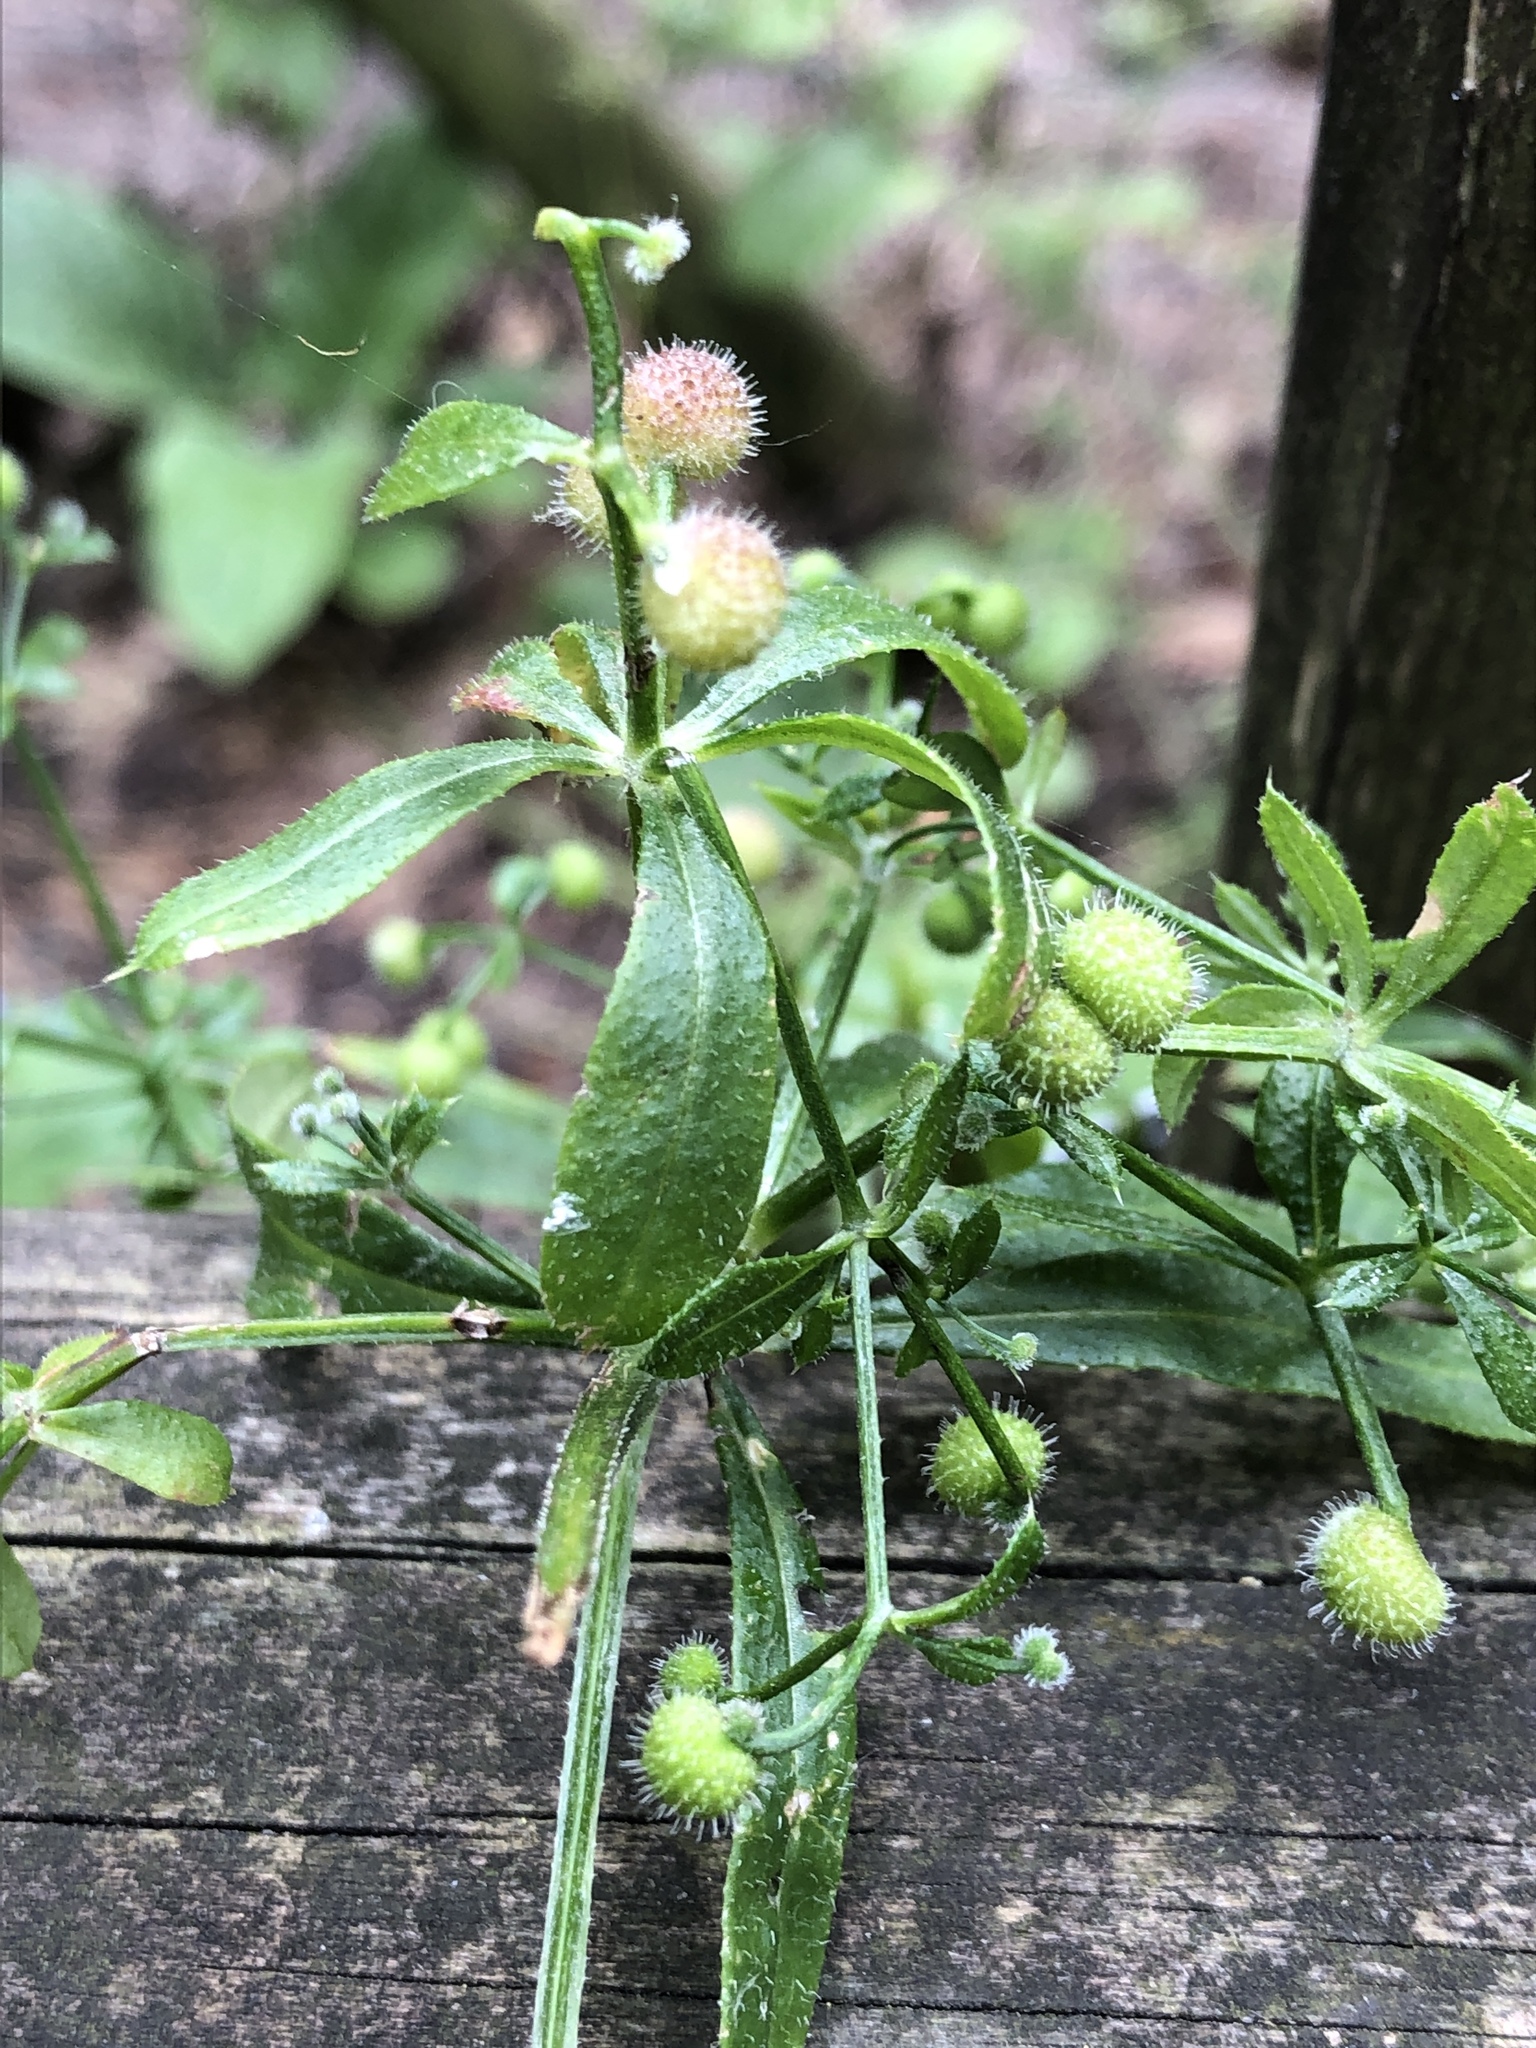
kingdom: Plantae
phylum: Tracheophyta
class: Magnoliopsida
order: Gentianales
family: Rubiaceae
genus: Galium
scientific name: Galium aparine
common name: Cleavers
